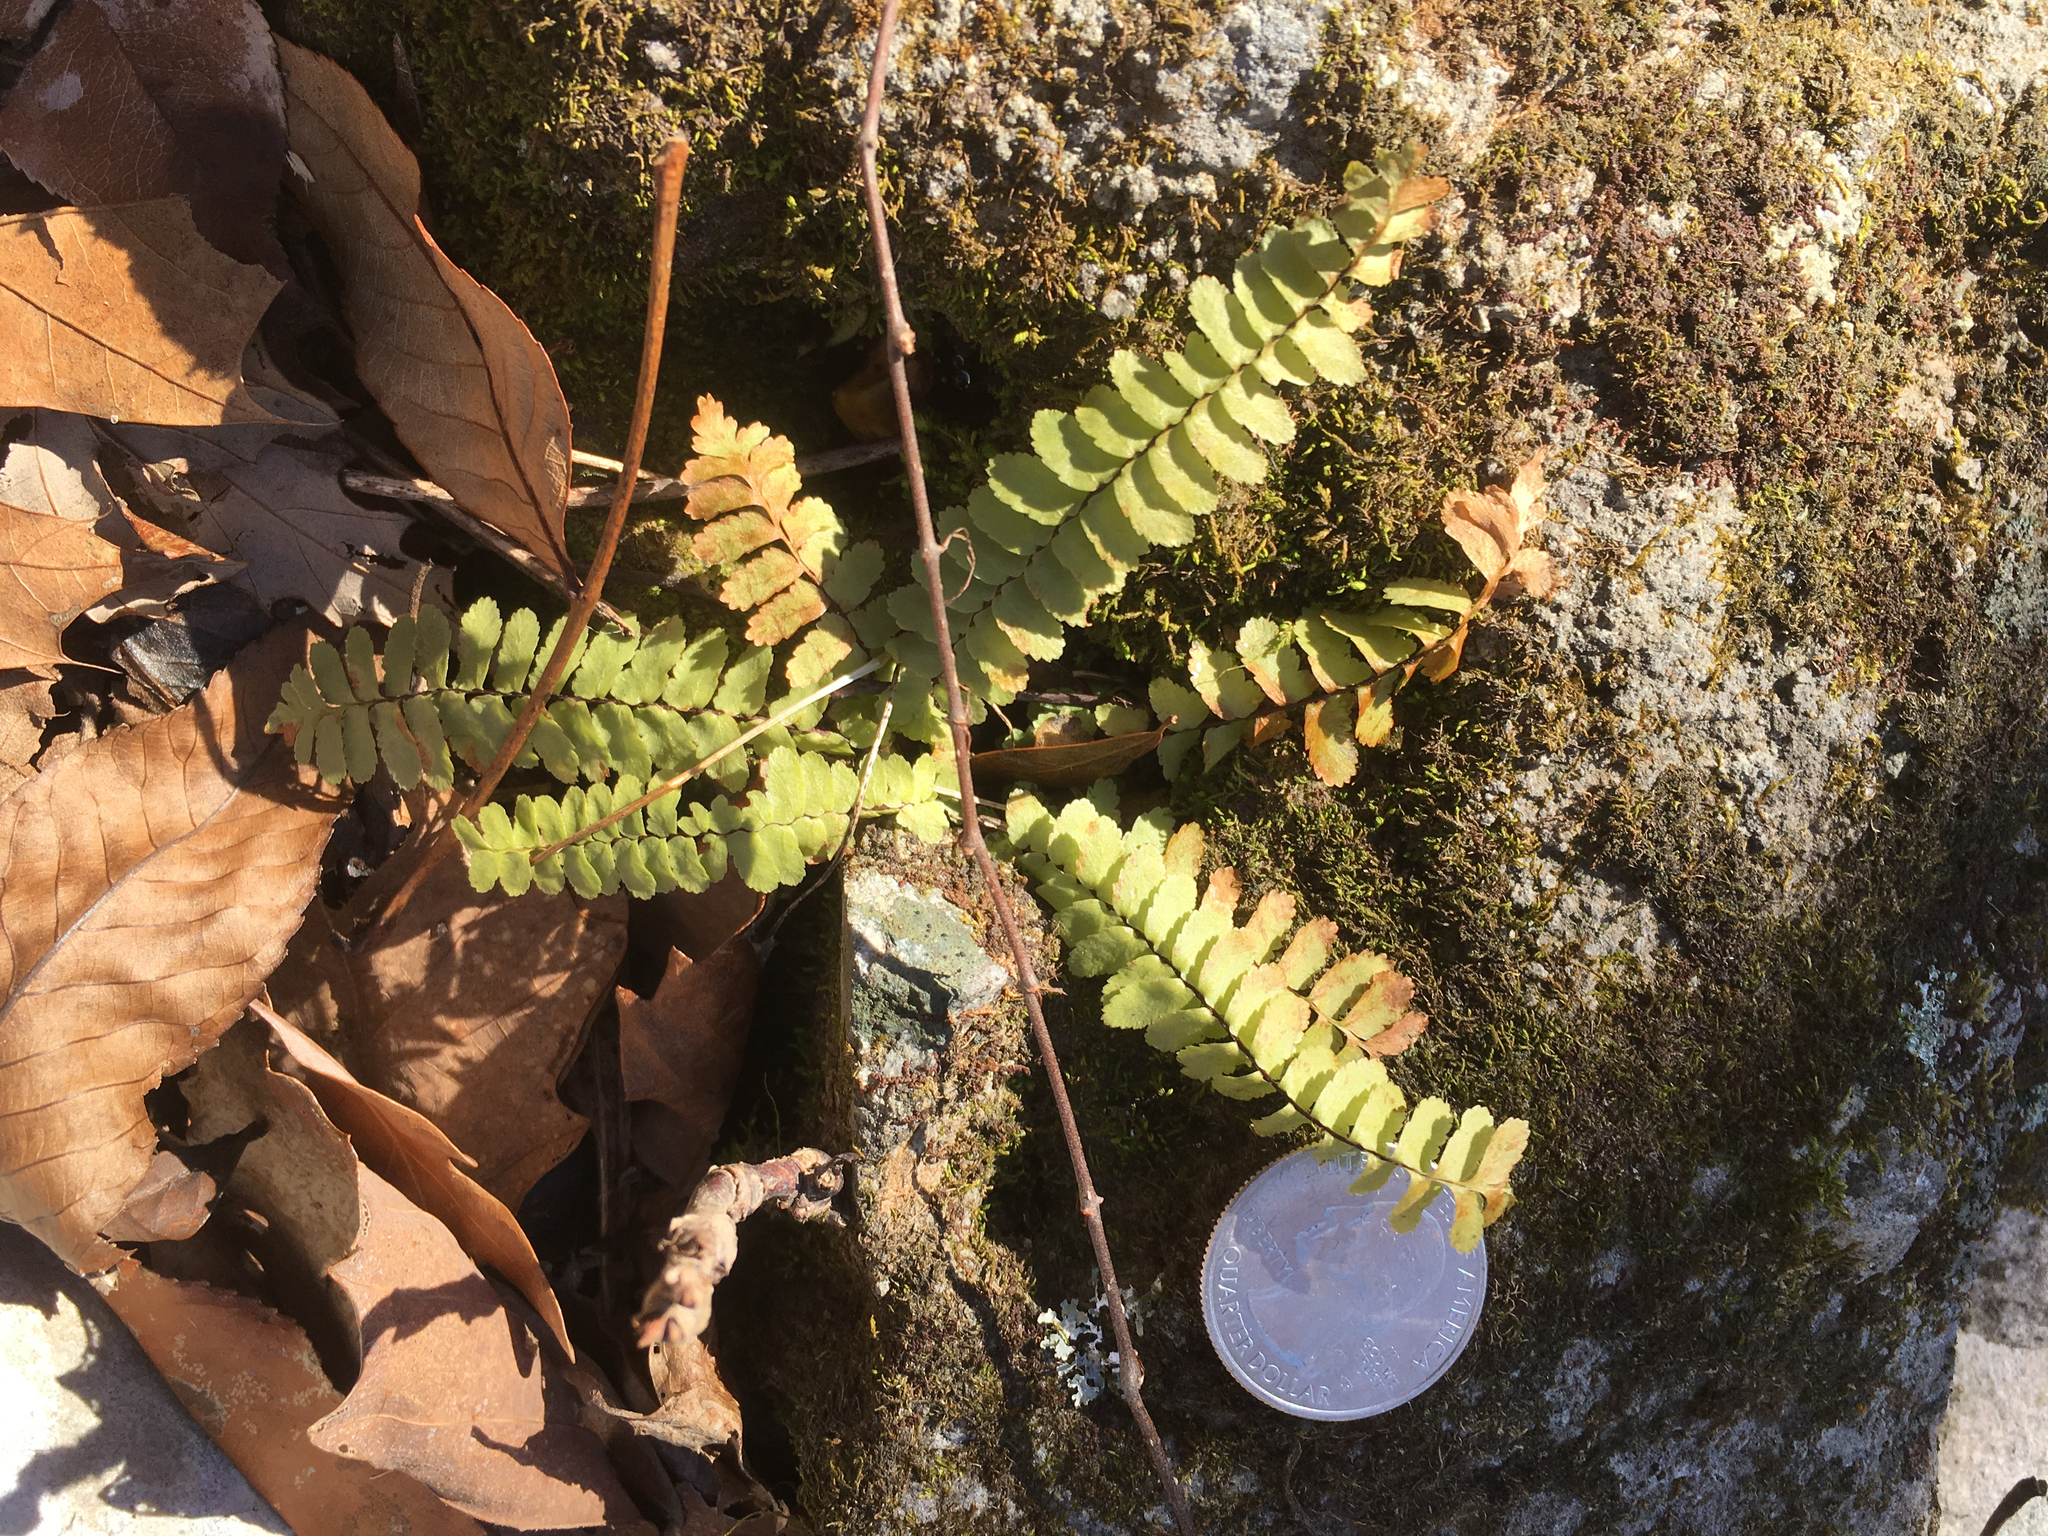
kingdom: Plantae
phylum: Tracheophyta
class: Polypodiopsida
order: Polypodiales
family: Aspleniaceae
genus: Asplenium
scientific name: Asplenium platyneuron
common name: Ebony spleenwort
